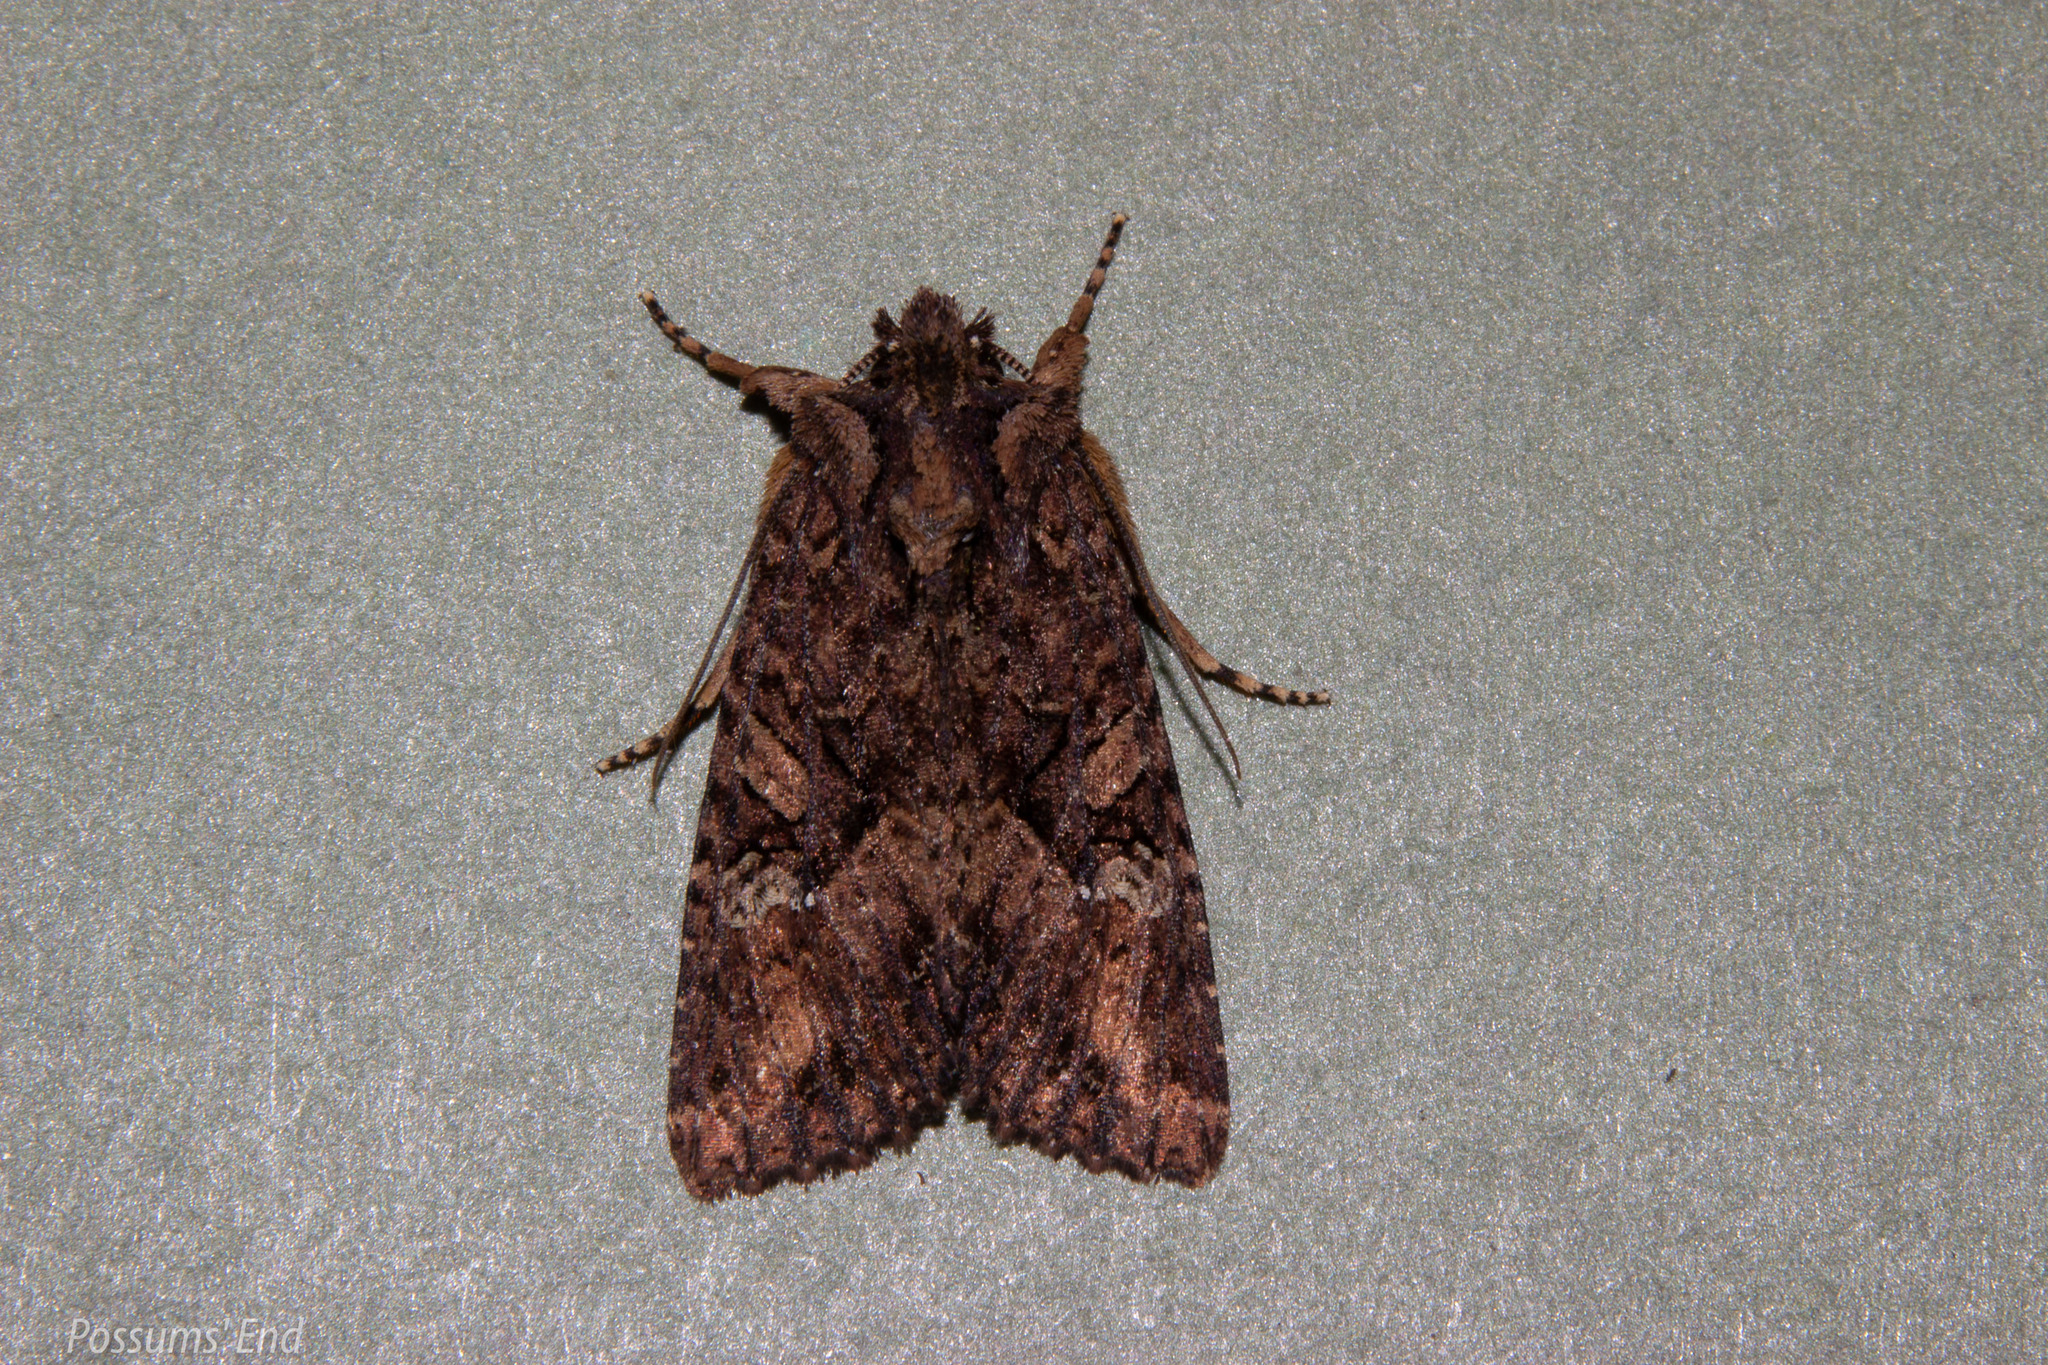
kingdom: Animalia
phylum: Arthropoda
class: Insecta
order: Lepidoptera
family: Noctuidae
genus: Meterana
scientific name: Meterana ochthistis
